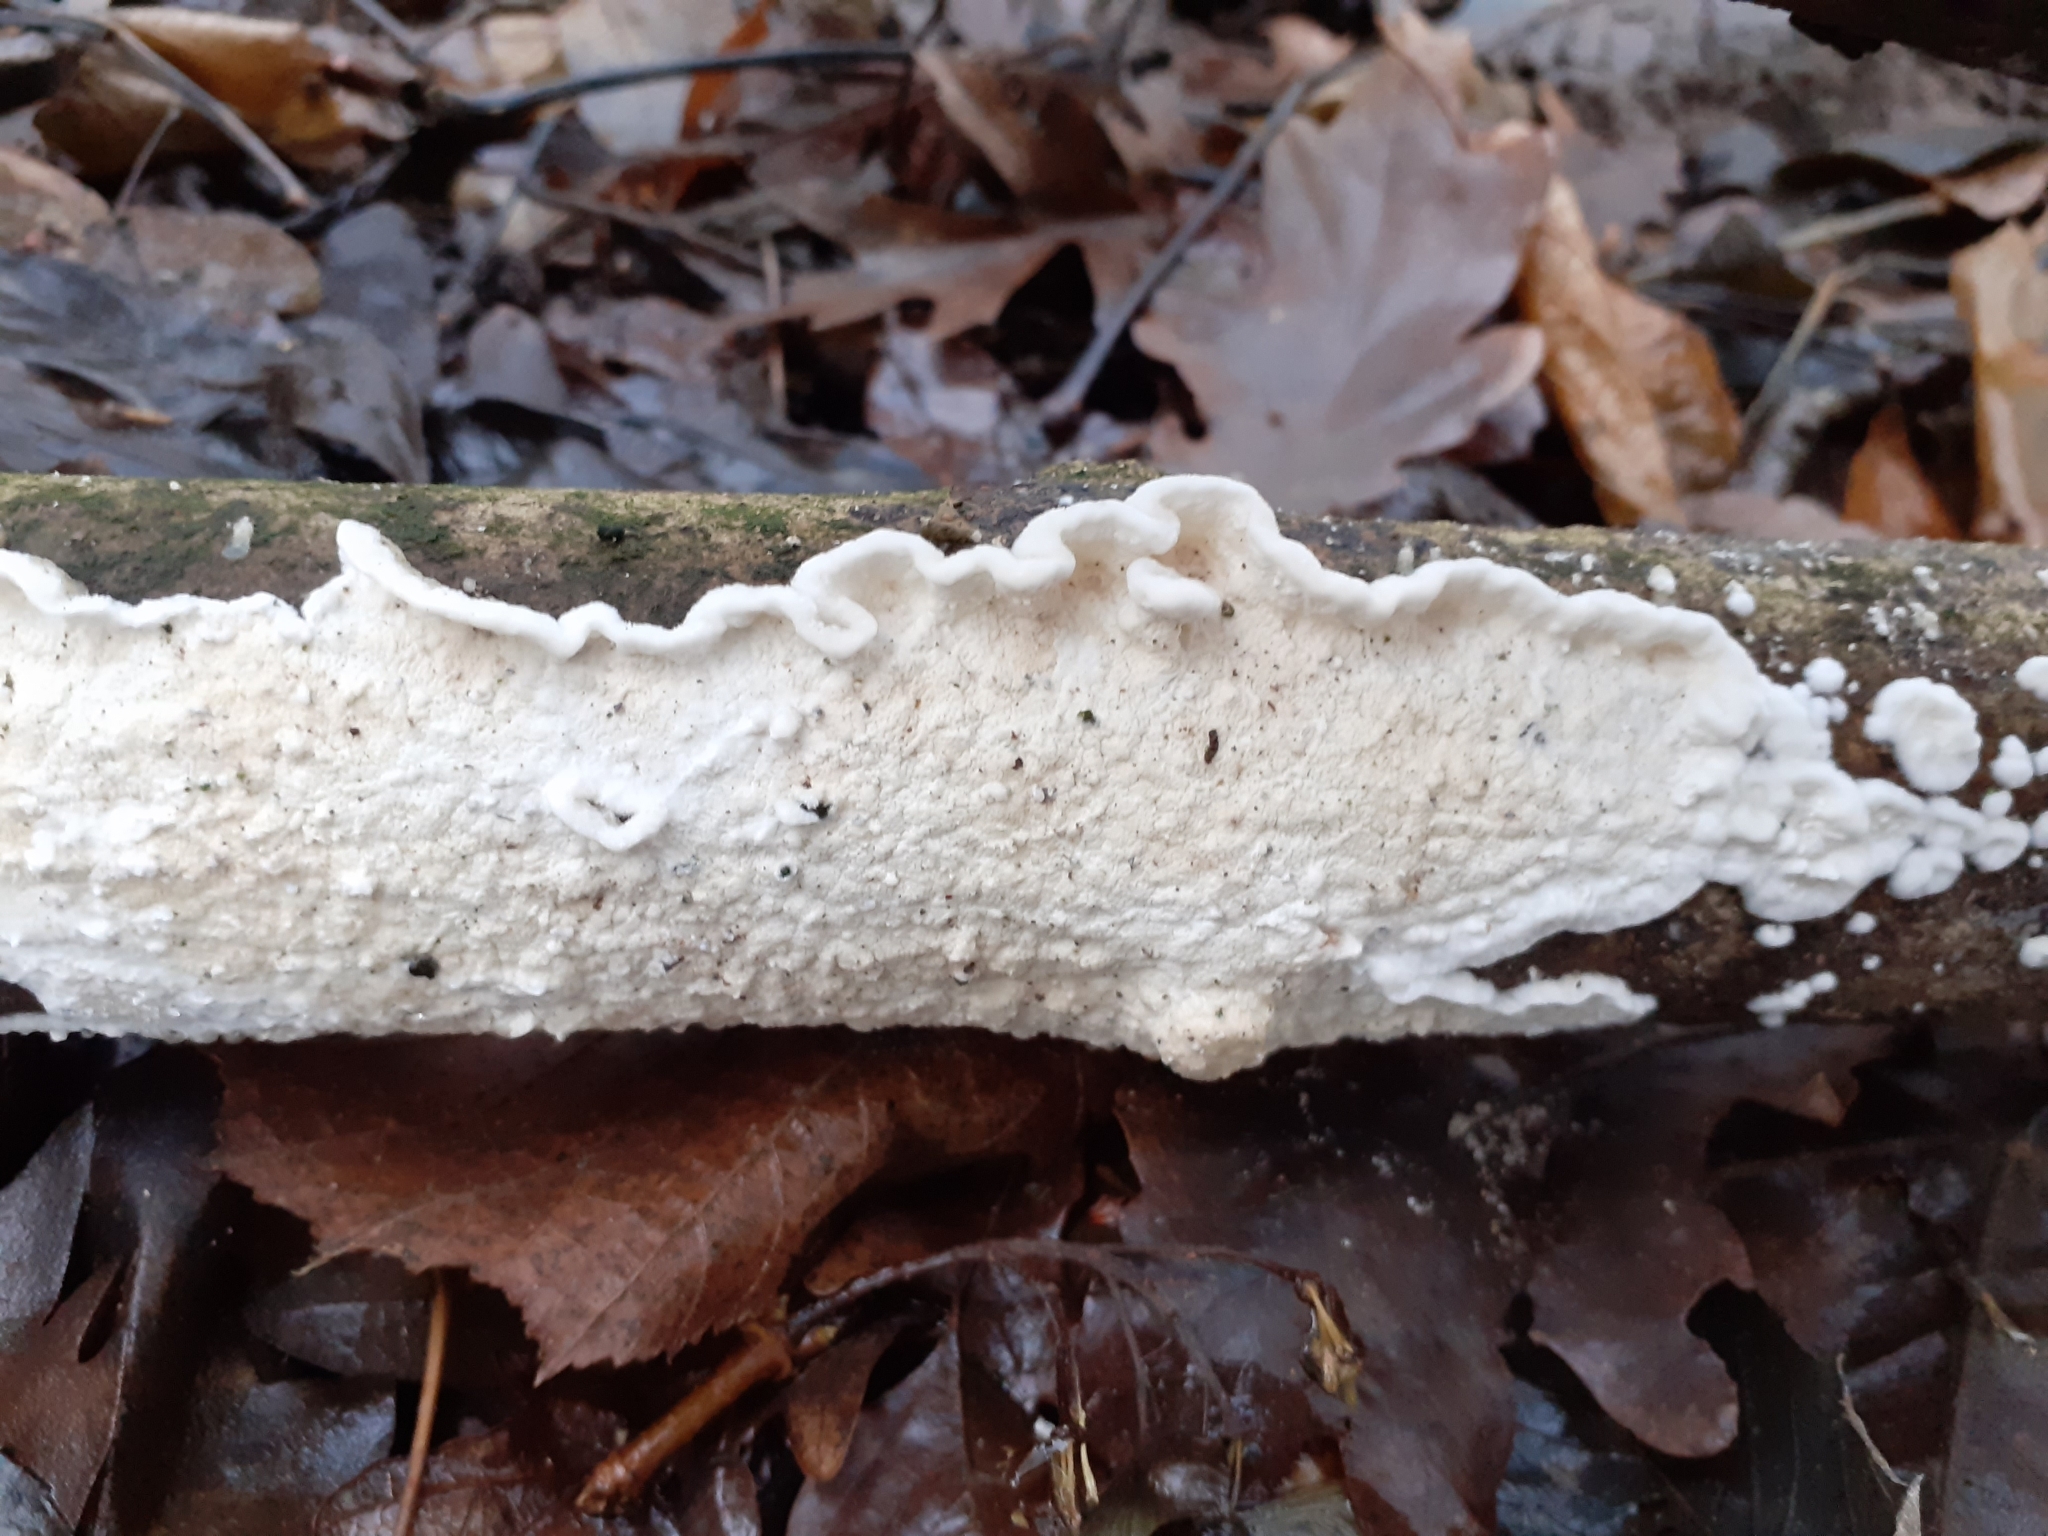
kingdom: Fungi
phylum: Basidiomycota
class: Agaricomycetes
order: Polyporales
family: Irpicaceae
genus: Byssomerulius
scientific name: Byssomerulius corium
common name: Netted crust
